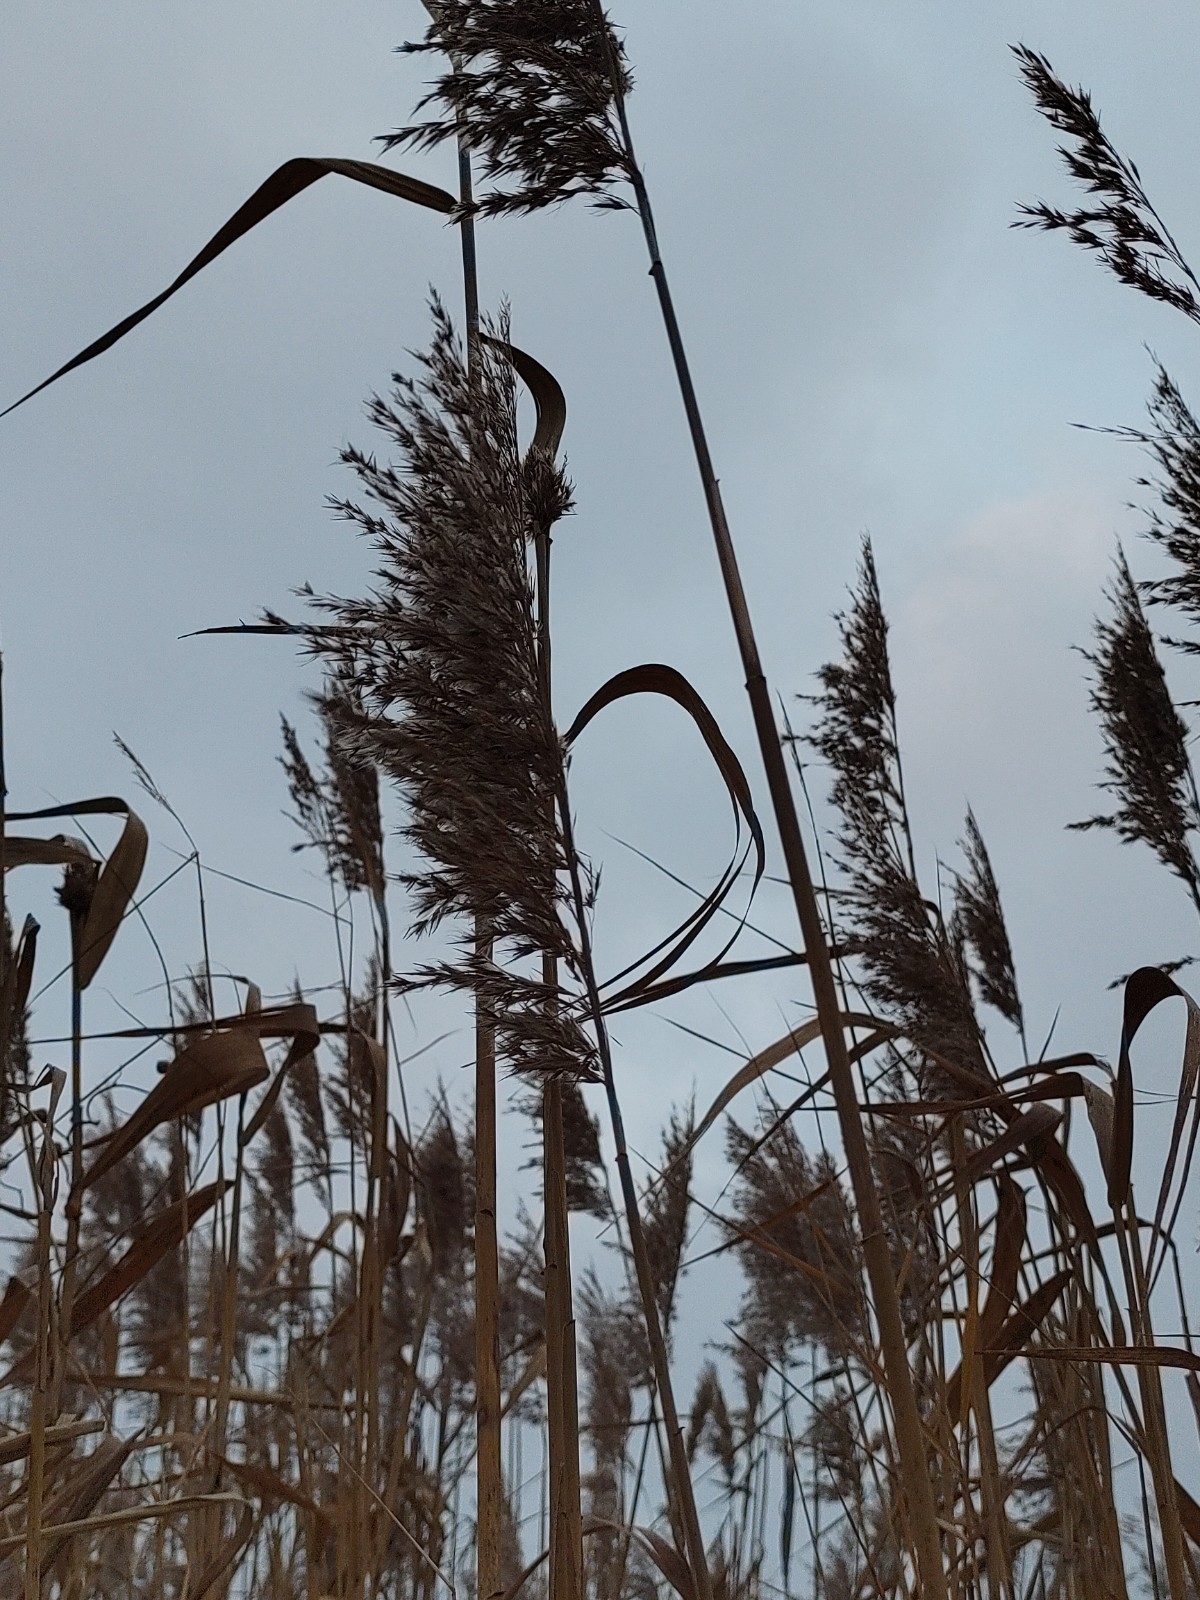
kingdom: Plantae
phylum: Tracheophyta
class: Liliopsida
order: Poales
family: Poaceae
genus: Phragmites
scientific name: Phragmites australis
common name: Common reed
